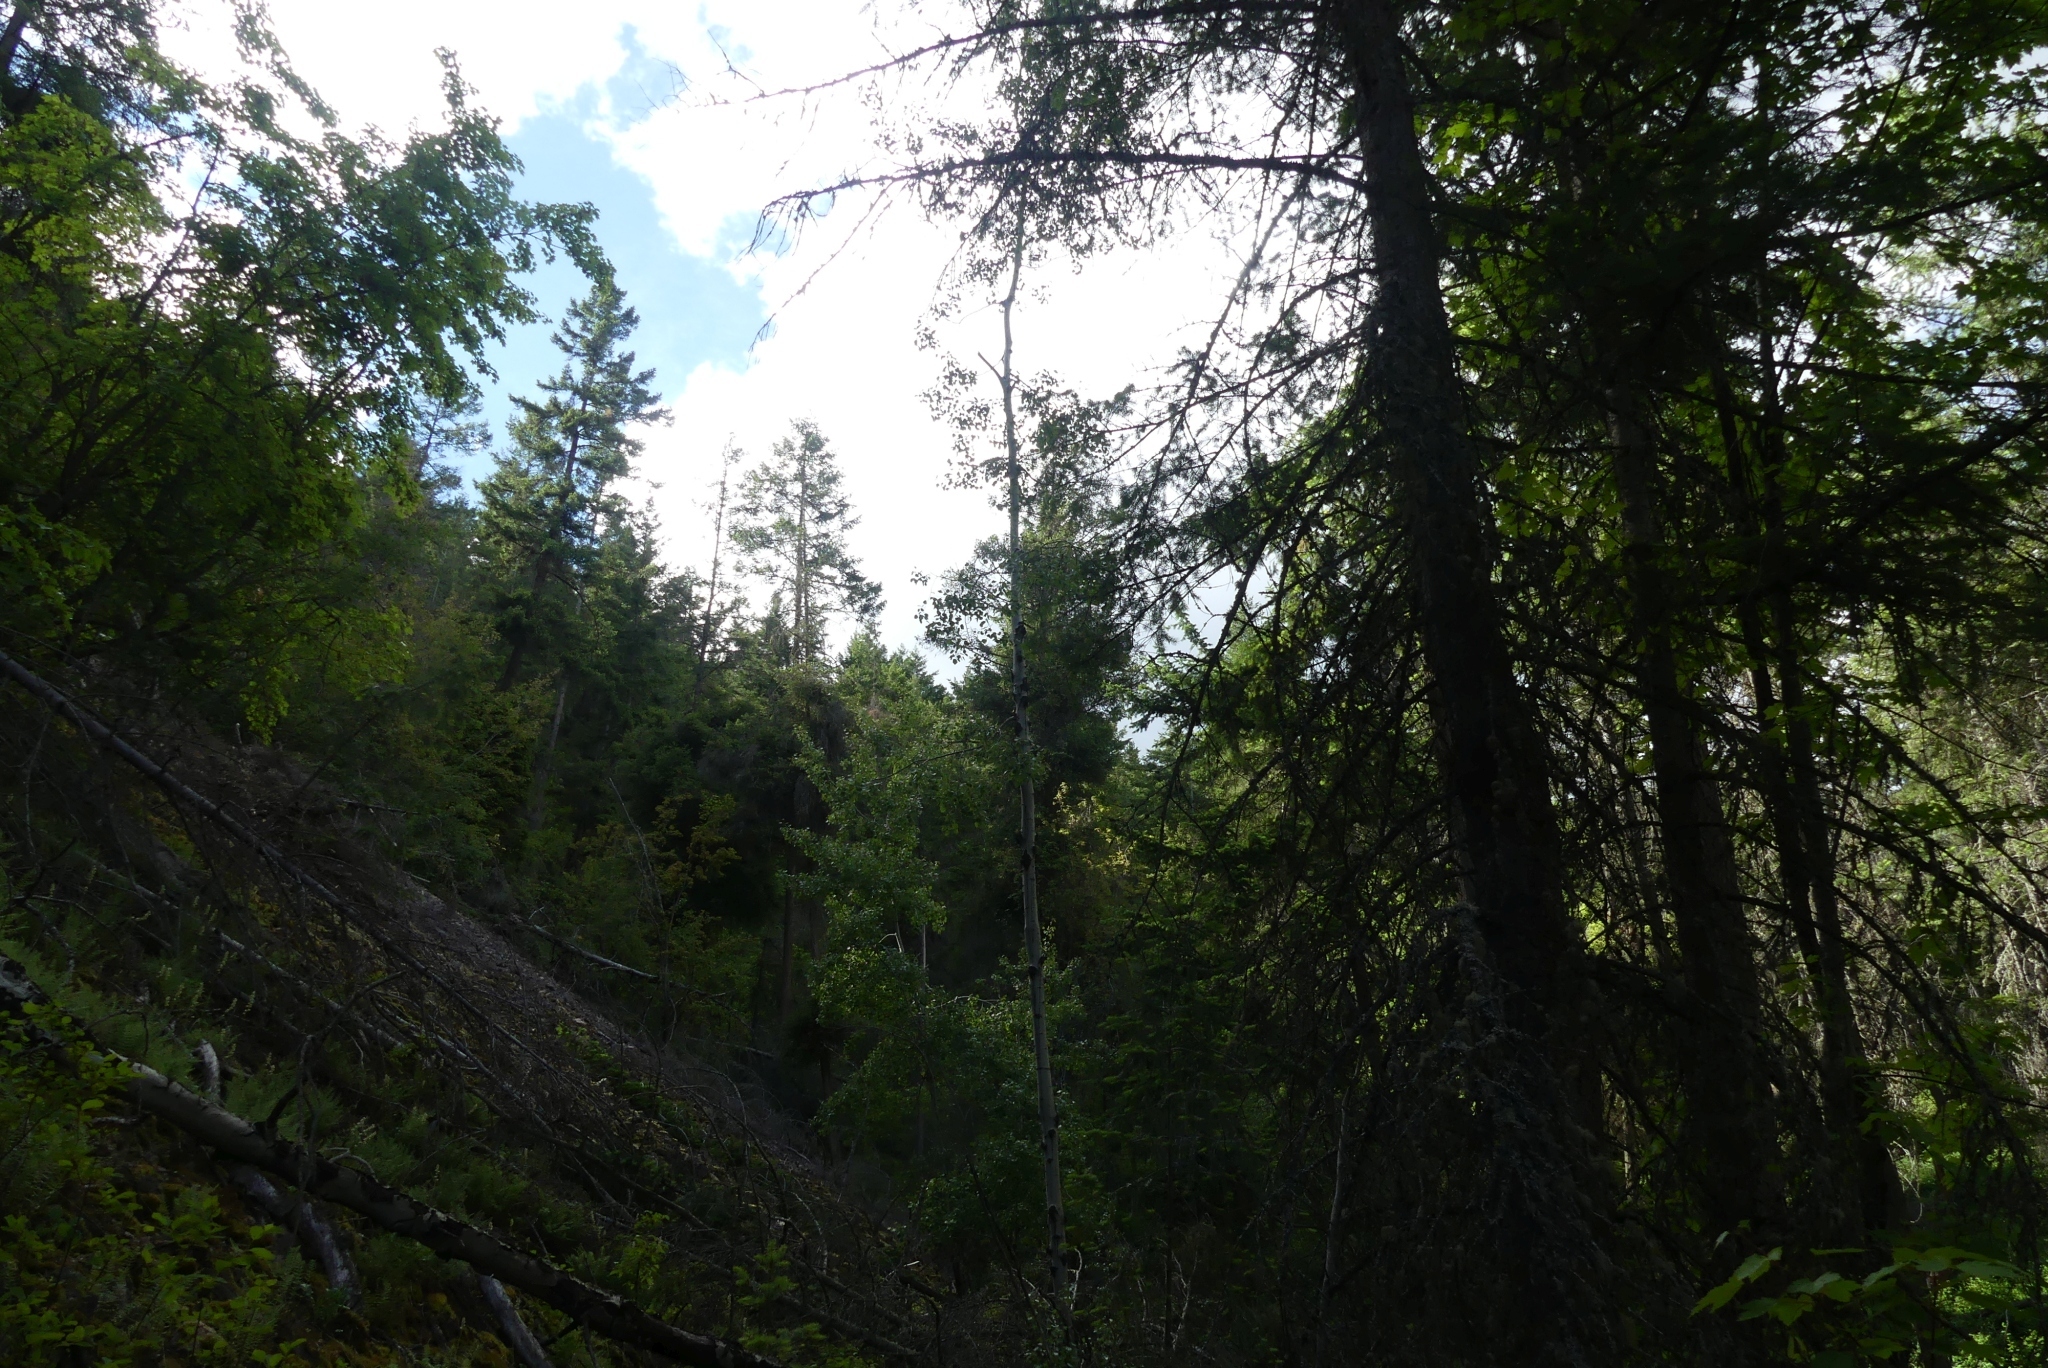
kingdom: Plantae
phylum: Tracheophyta
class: Magnoliopsida
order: Malpighiales
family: Salicaceae
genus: Populus
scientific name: Populus tremuloides
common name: Quaking aspen
